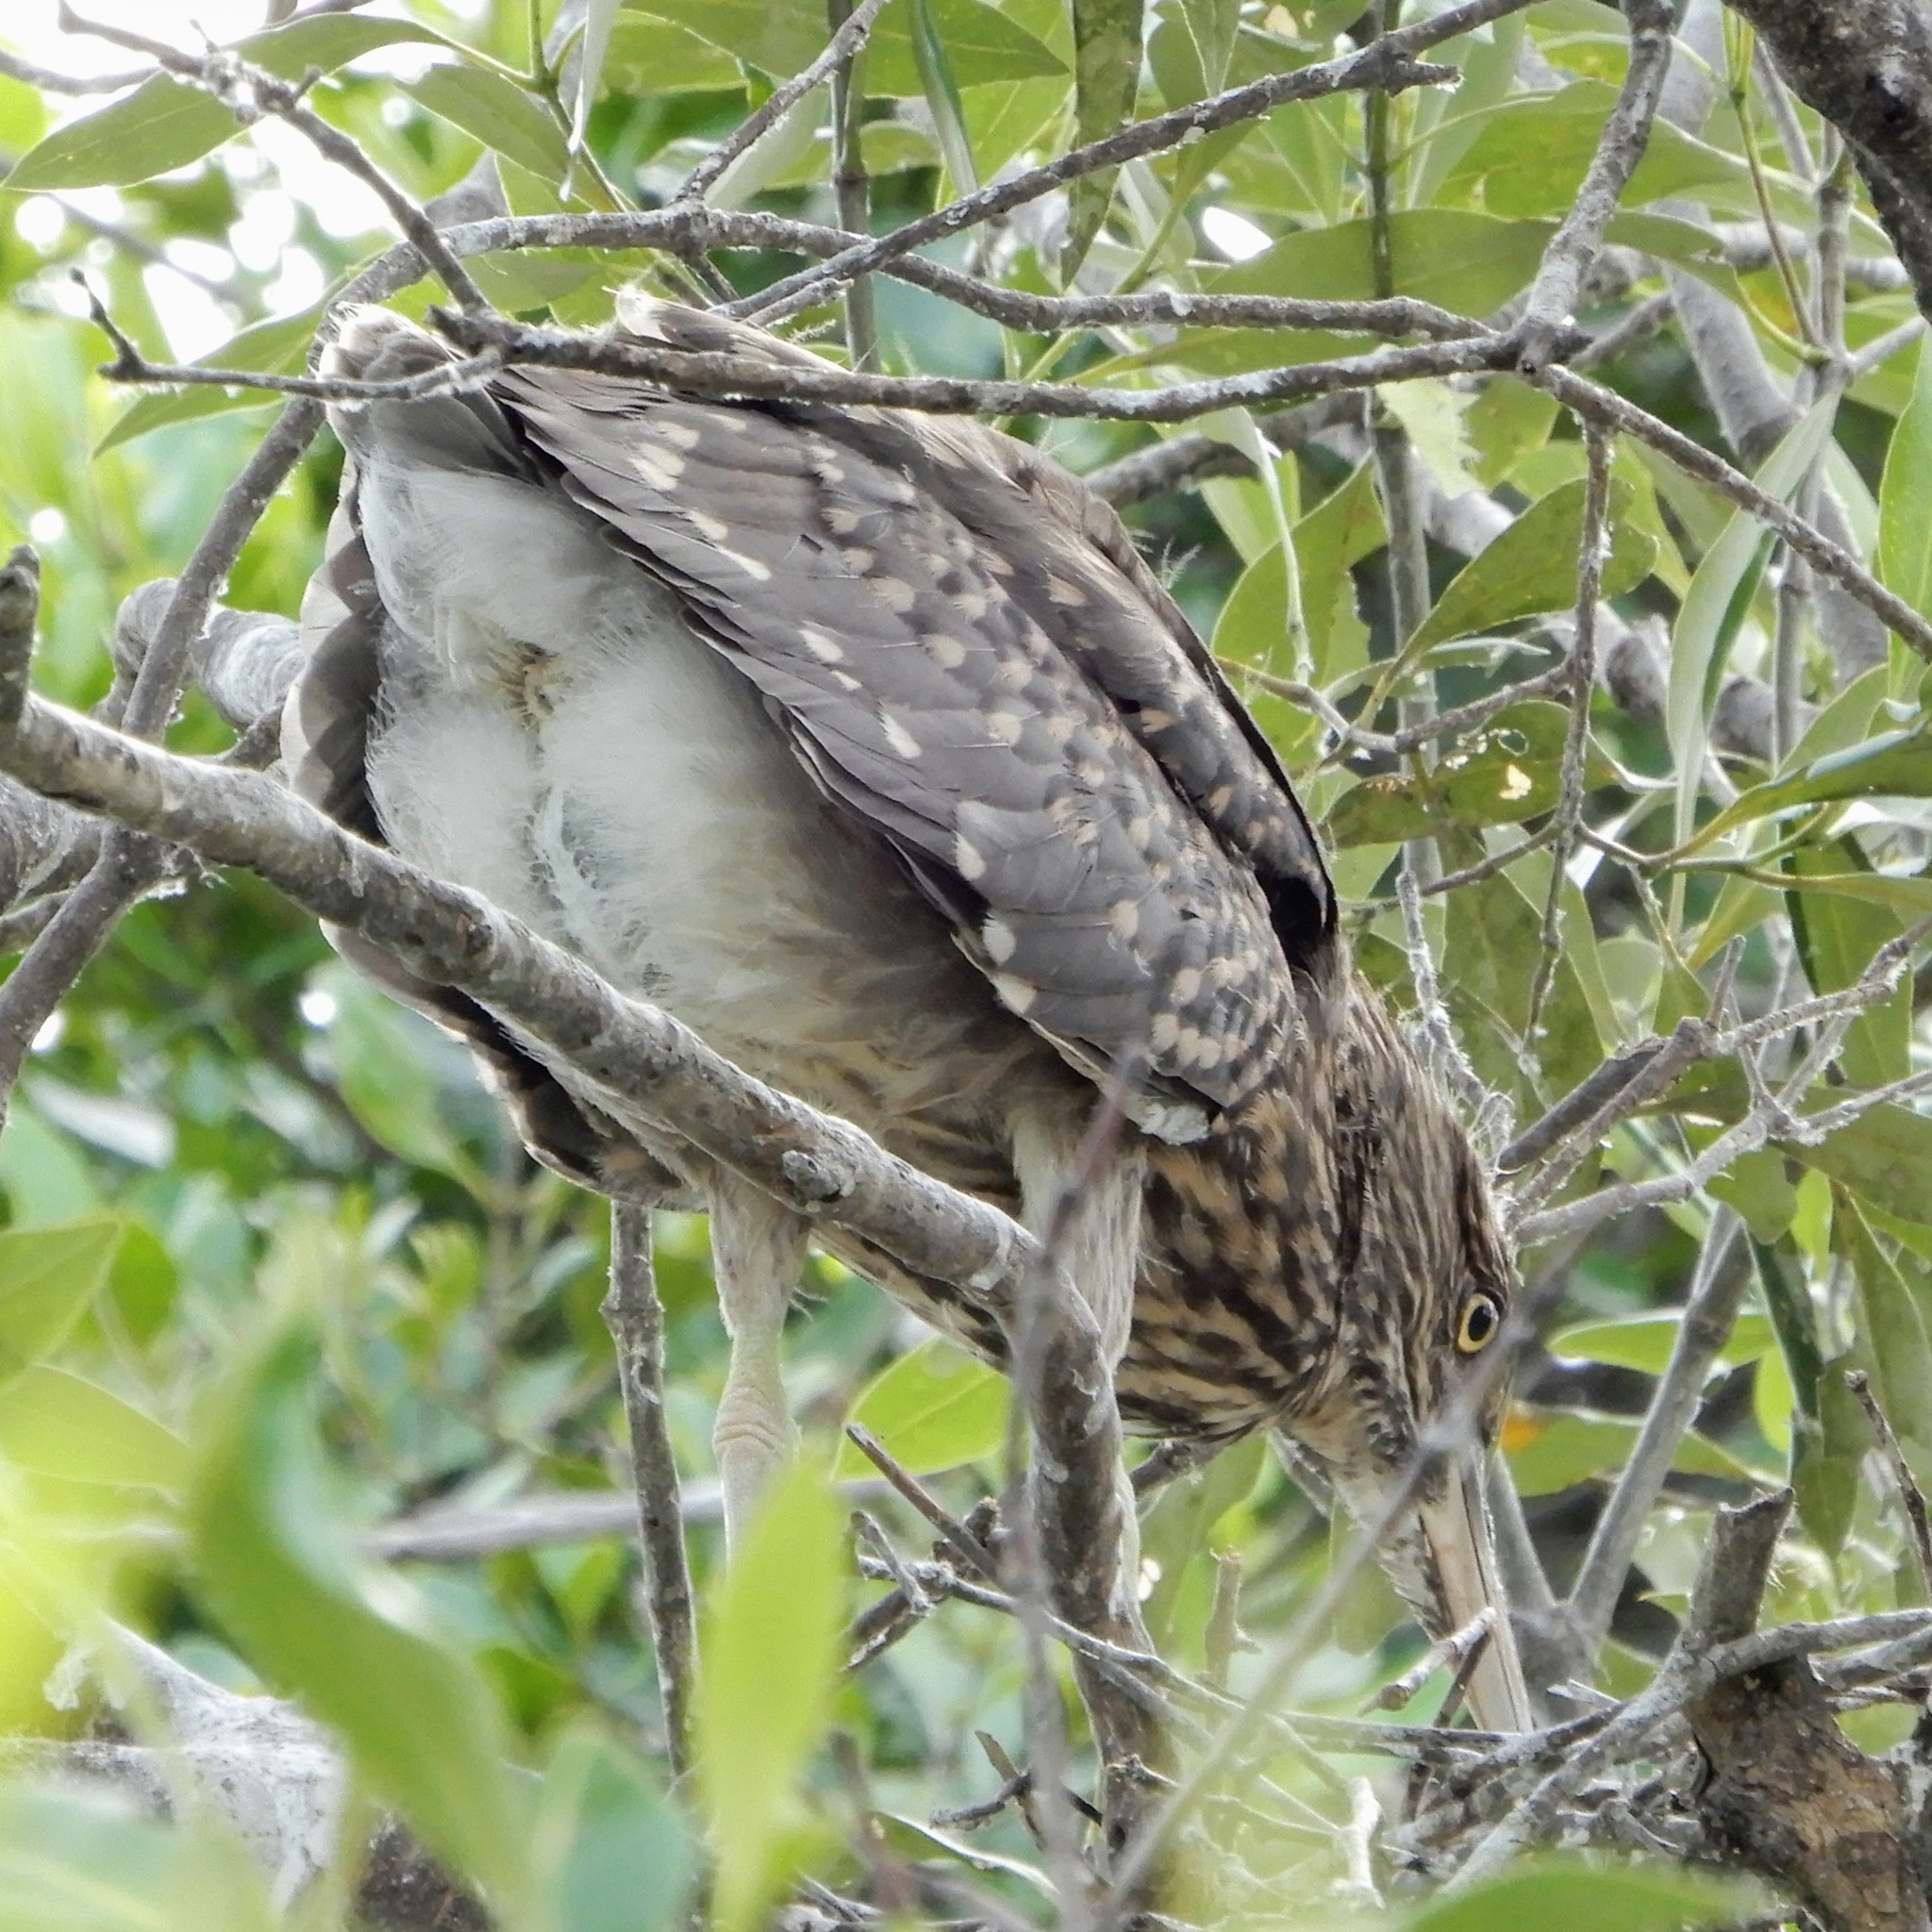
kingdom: Animalia
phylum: Chordata
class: Aves
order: Pelecaniformes
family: Ardeidae
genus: Nycticorax
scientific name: Nycticorax nycticorax
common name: Black-crowned night heron
